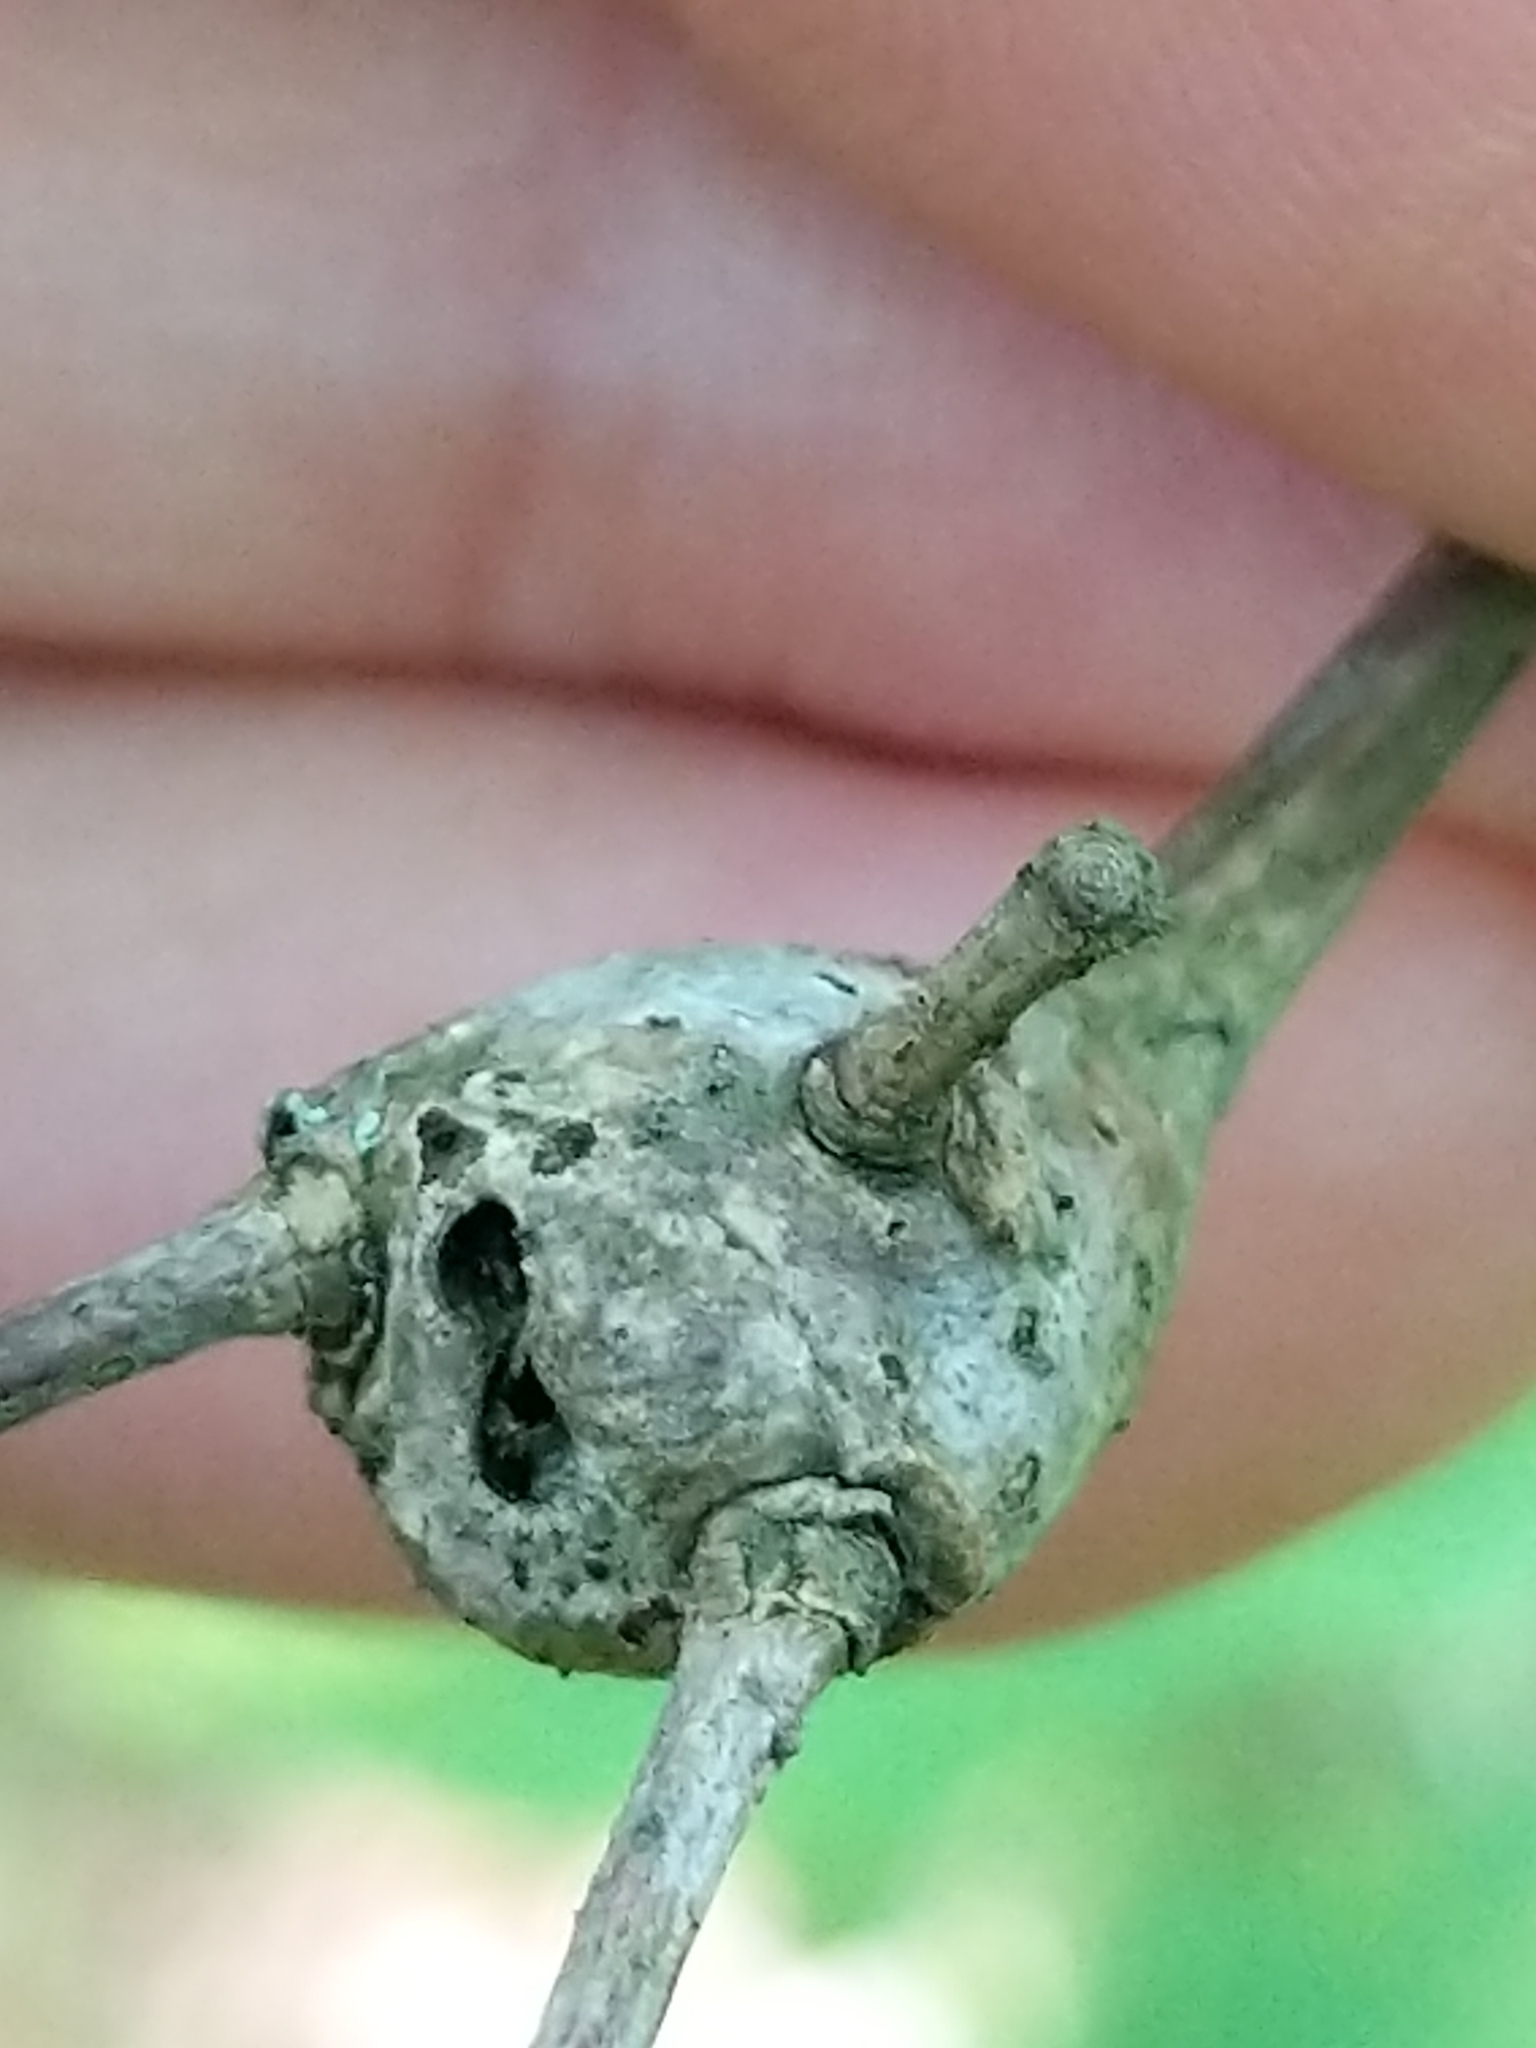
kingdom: Animalia
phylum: Arthropoda
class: Insecta
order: Hymenoptera
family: Cynipidae
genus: Callirhytis
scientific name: Callirhytis clavula
